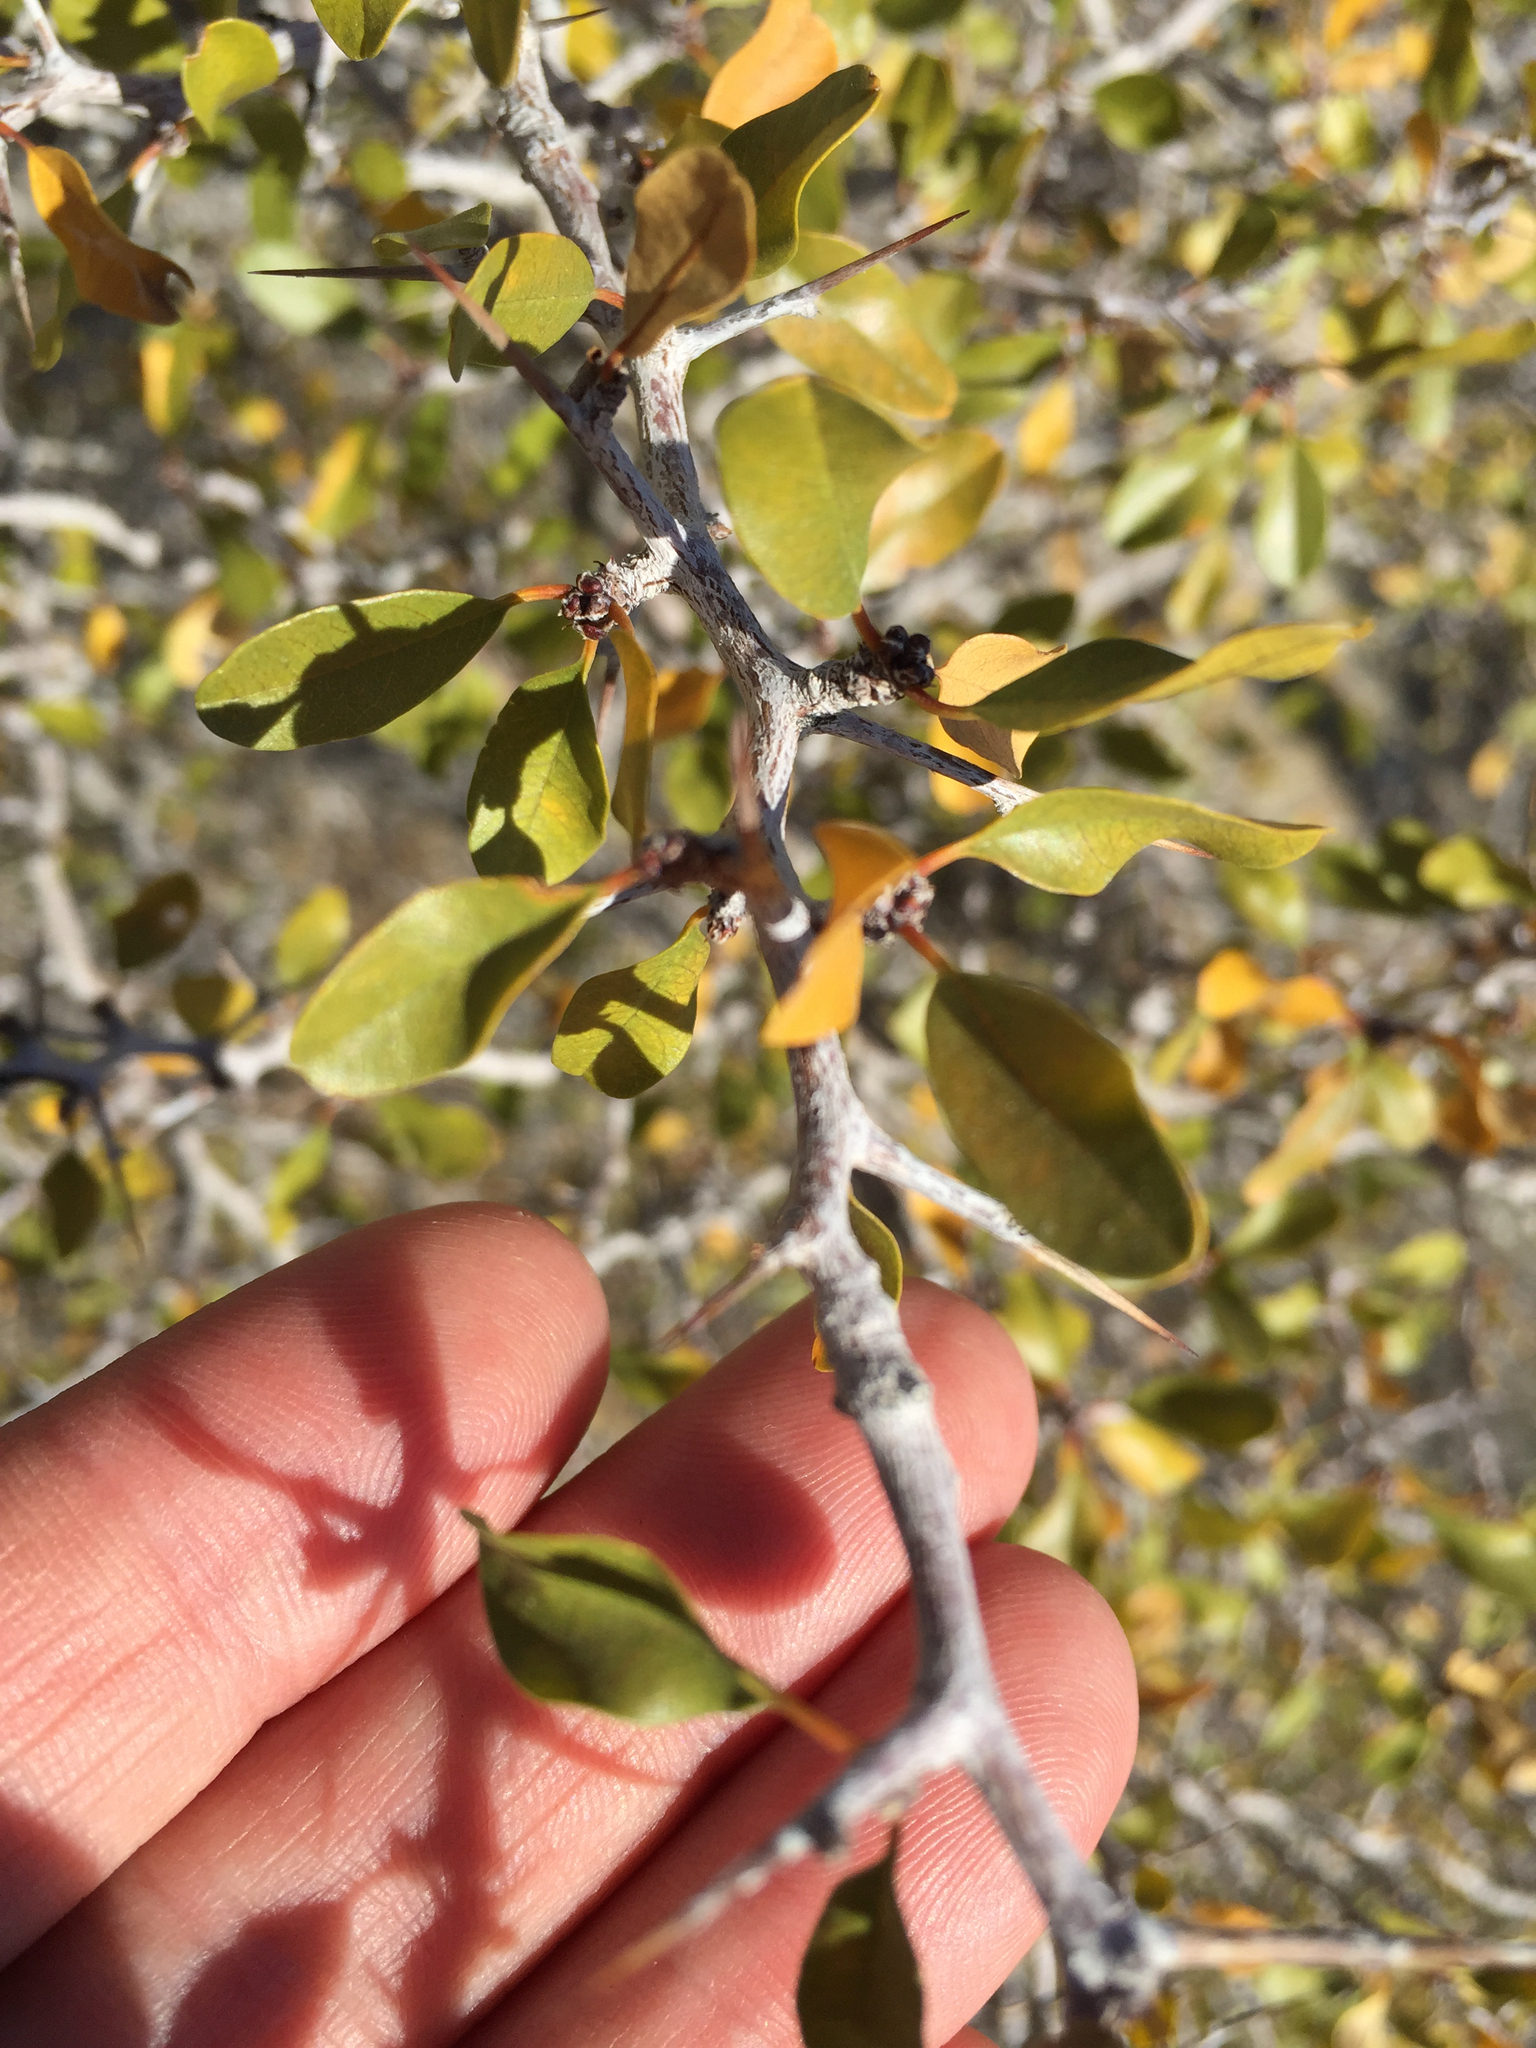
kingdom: Plantae
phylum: Tracheophyta
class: Magnoliopsida
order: Rosales
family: Rhamnaceae
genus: Pseudoziziphus
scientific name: Pseudoziziphus parryi
